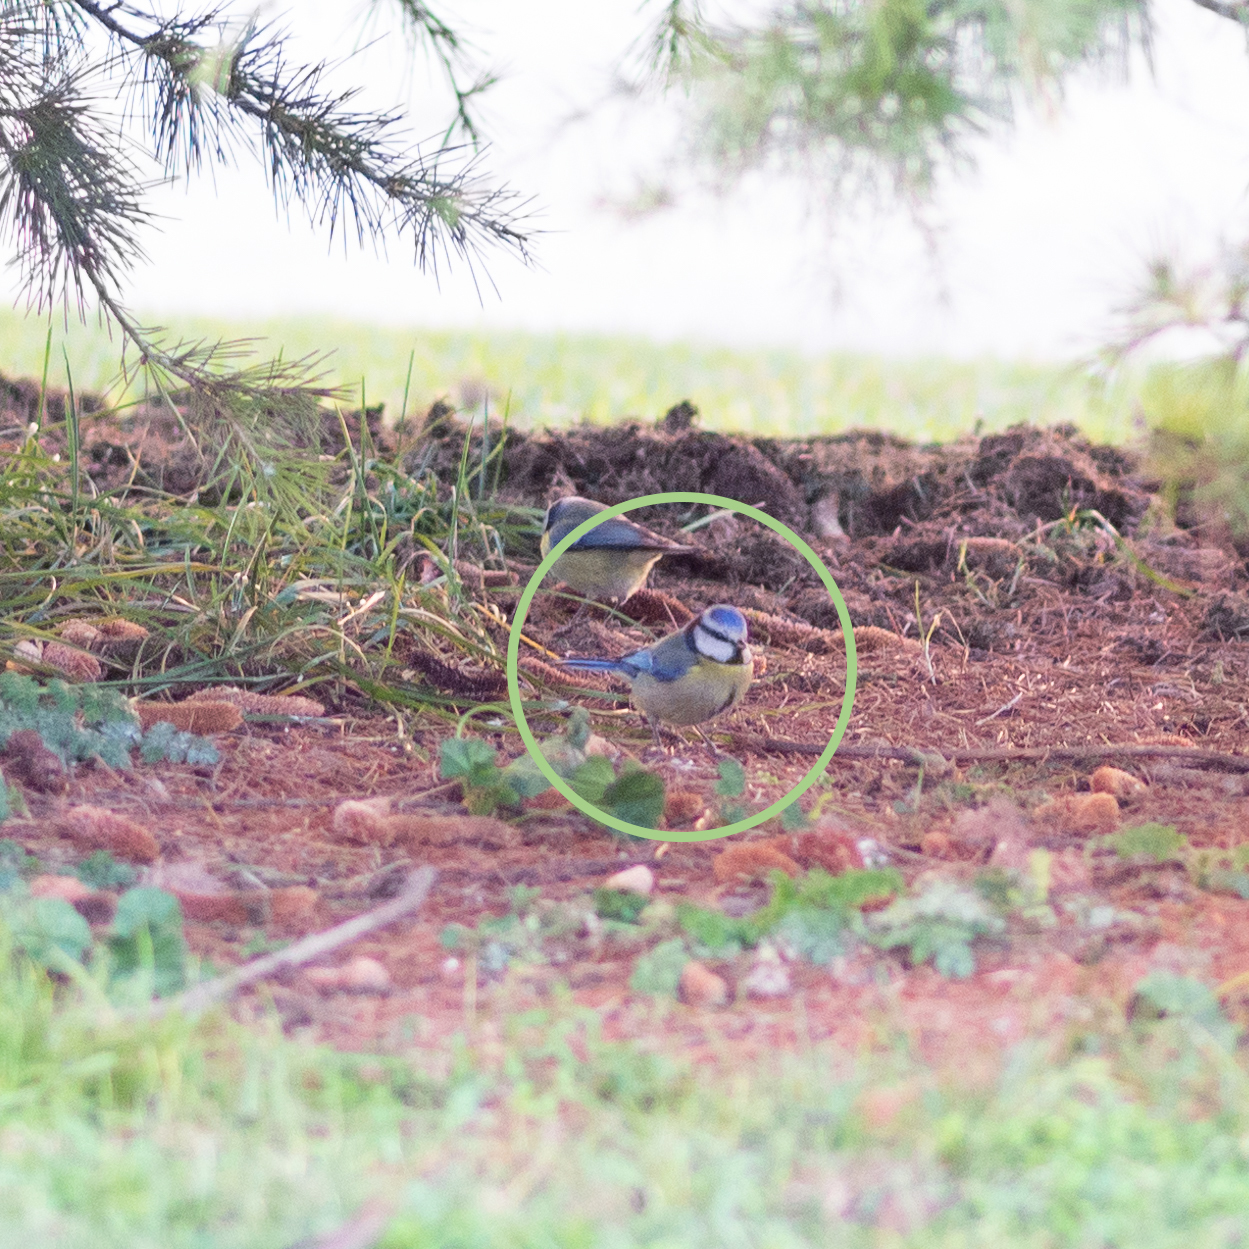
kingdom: Animalia
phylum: Chordata
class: Aves
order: Passeriformes
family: Paridae
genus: Cyanistes
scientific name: Cyanistes caeruleus
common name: Eurasian blue tit
